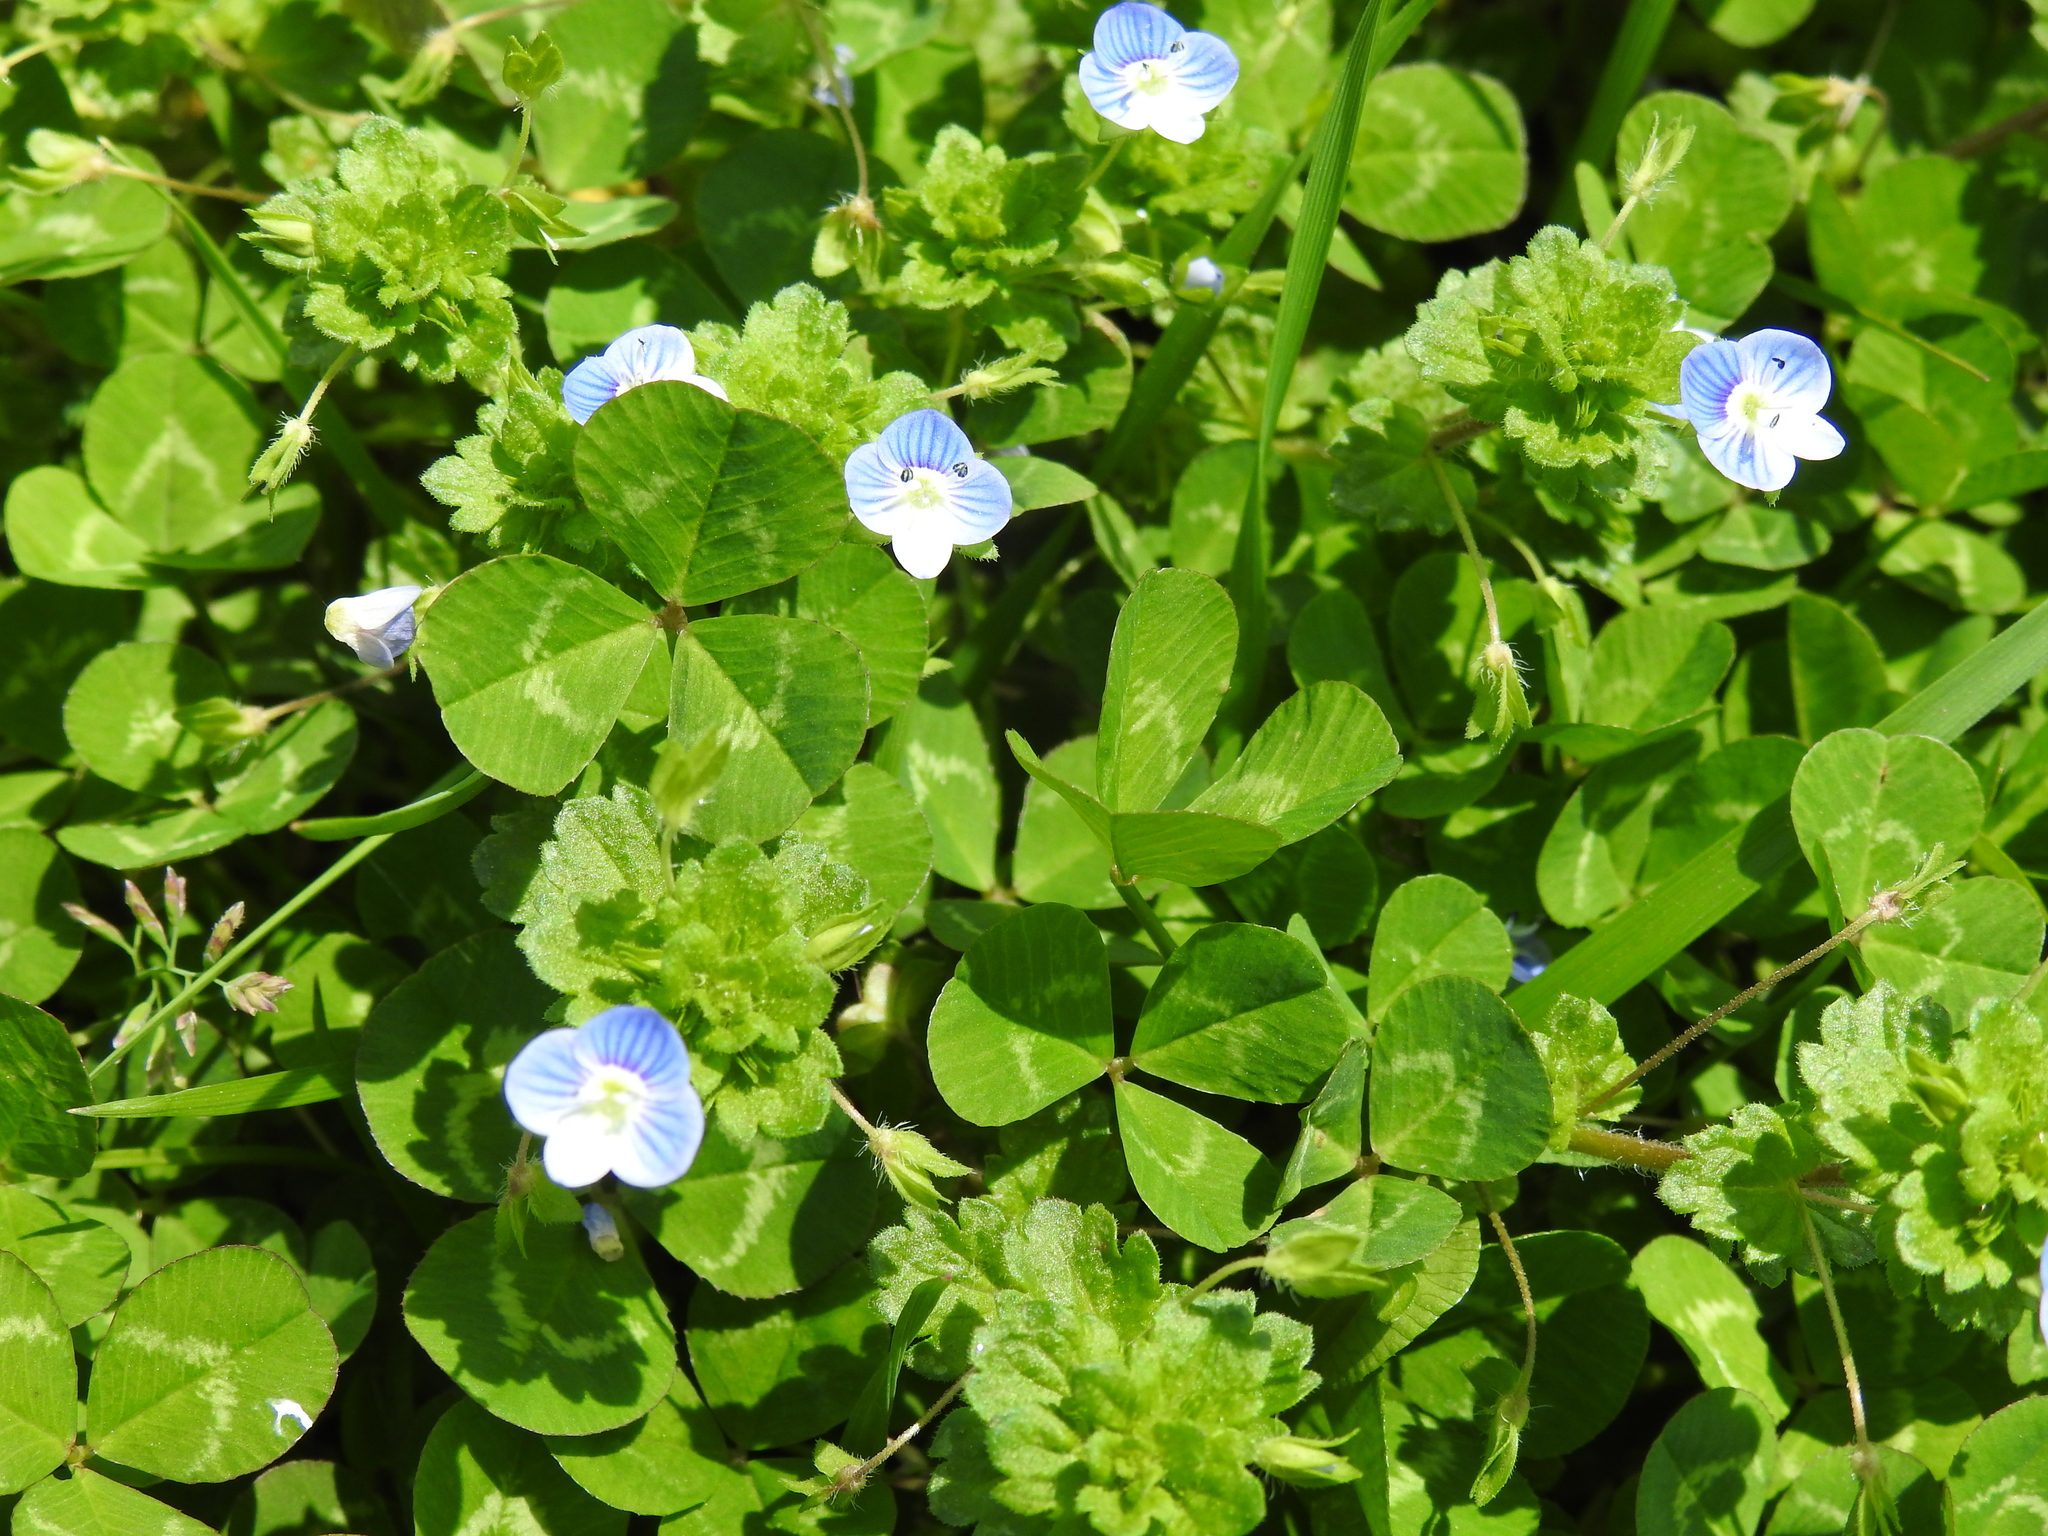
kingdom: Plantae
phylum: Tracheophyta
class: Magnoliopsida
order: Lamiales
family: Plantaginaceae
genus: Veronica
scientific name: Veronica persica
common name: Common field-speedwell
